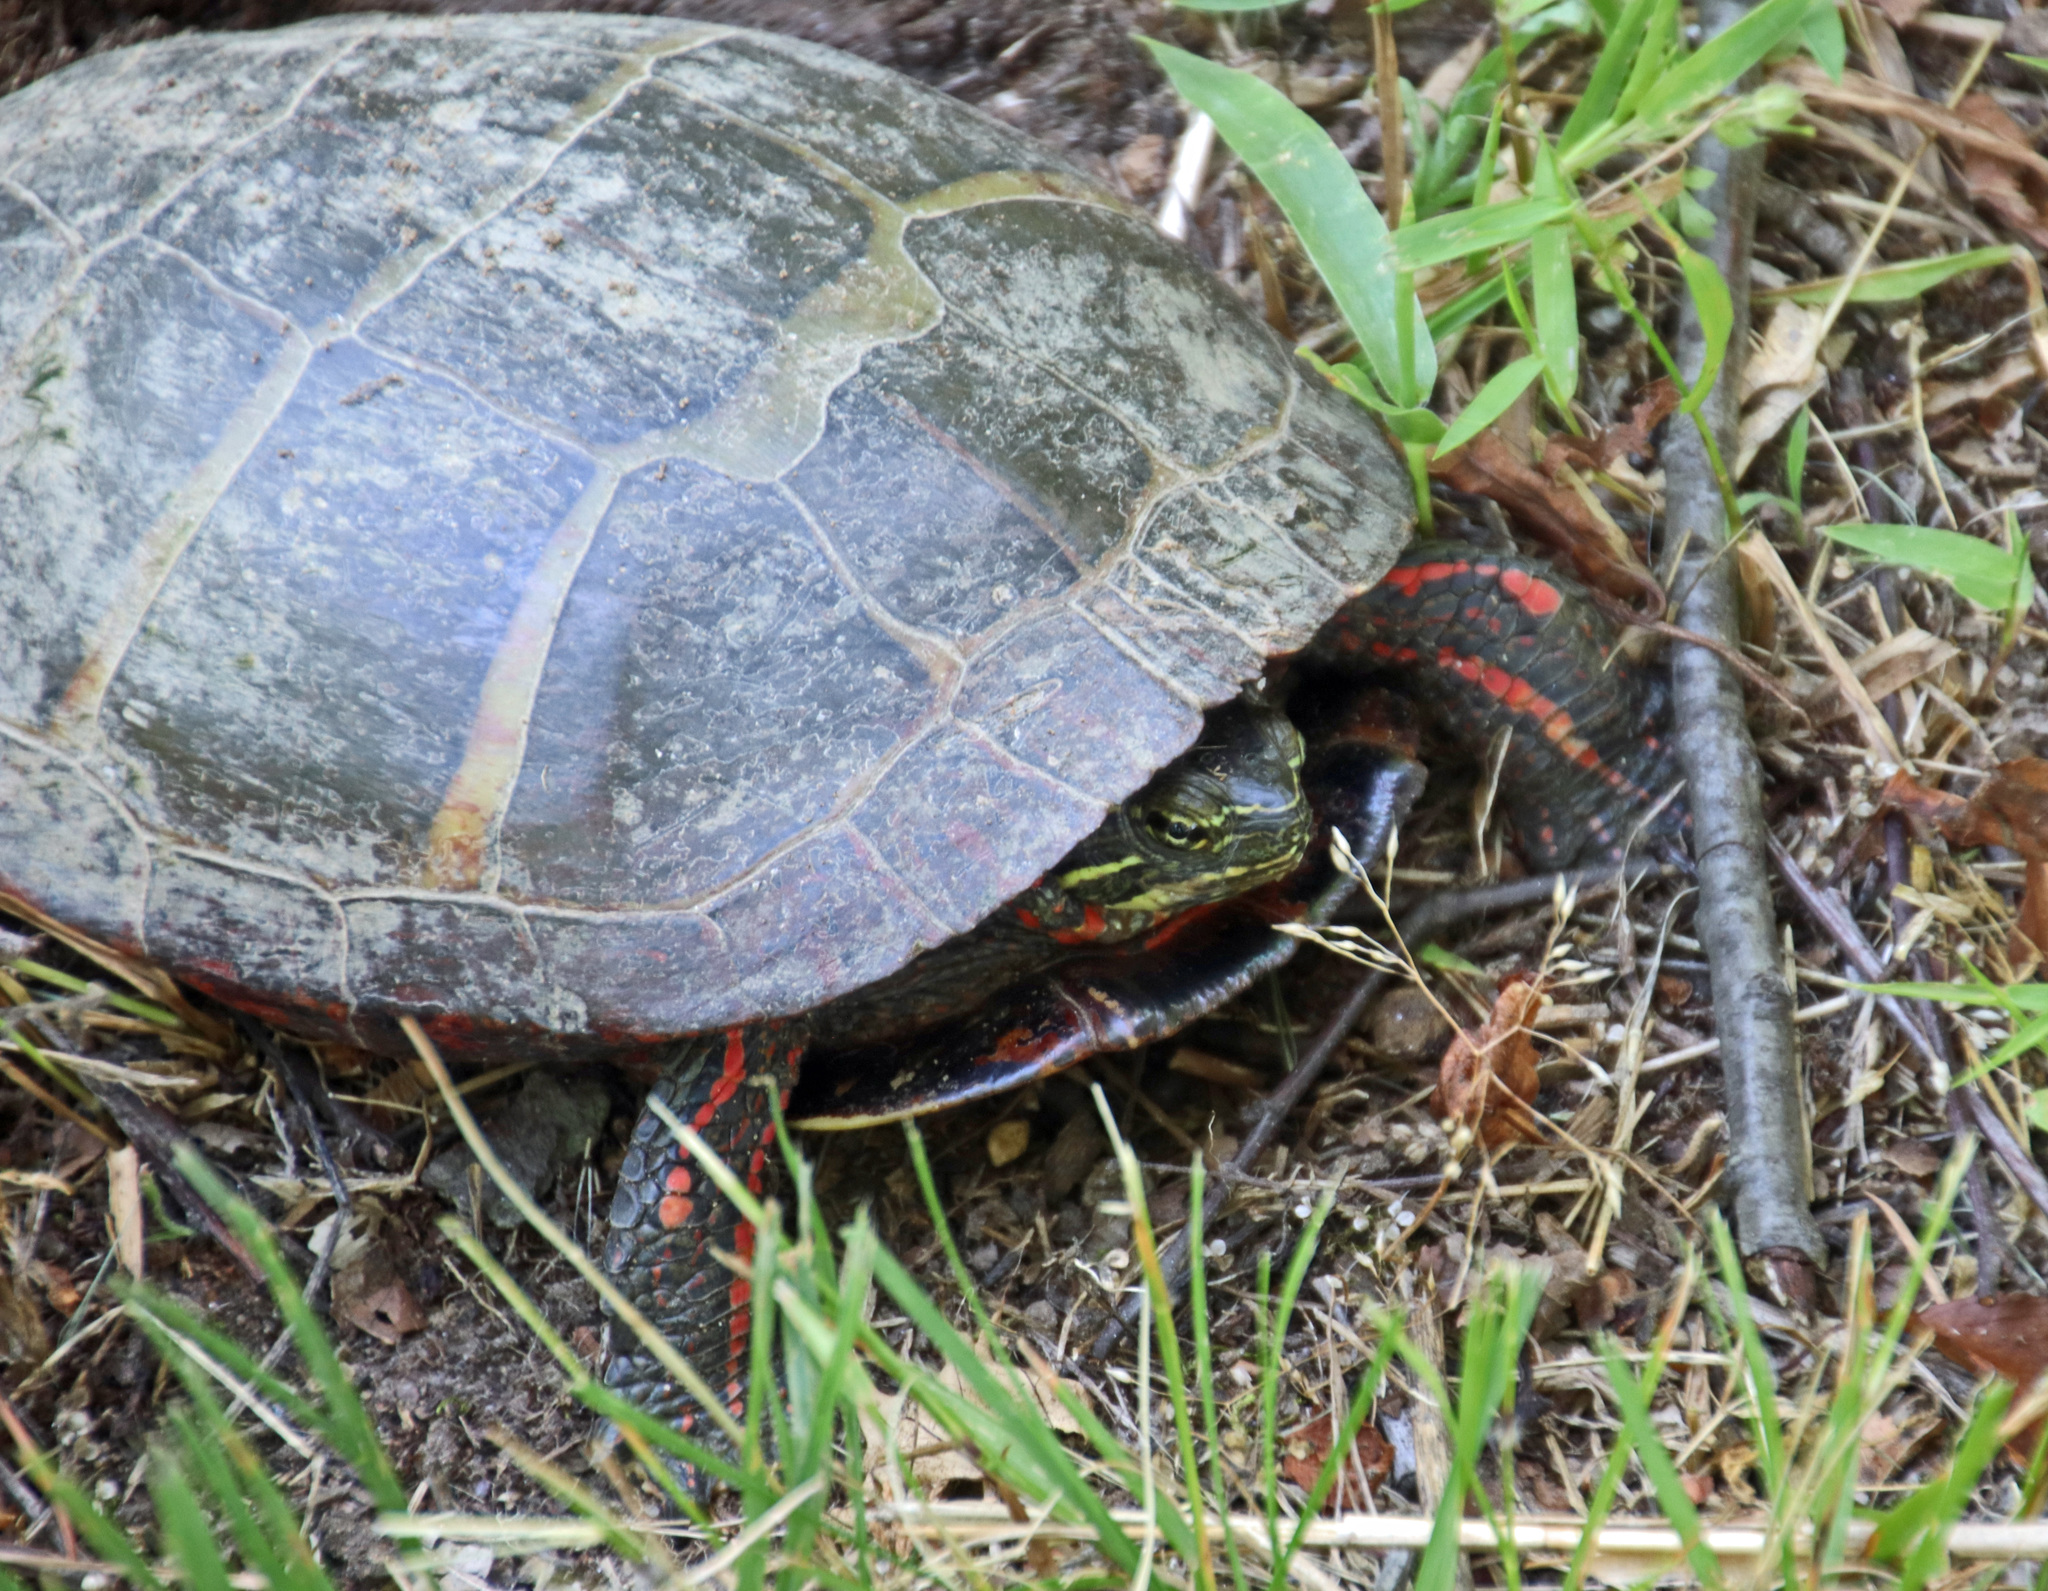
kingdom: Animalia
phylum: Chordata
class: Testudines
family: Emydidae
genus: Chrysemys
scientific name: Chrysemys picta
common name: Painted turtle
